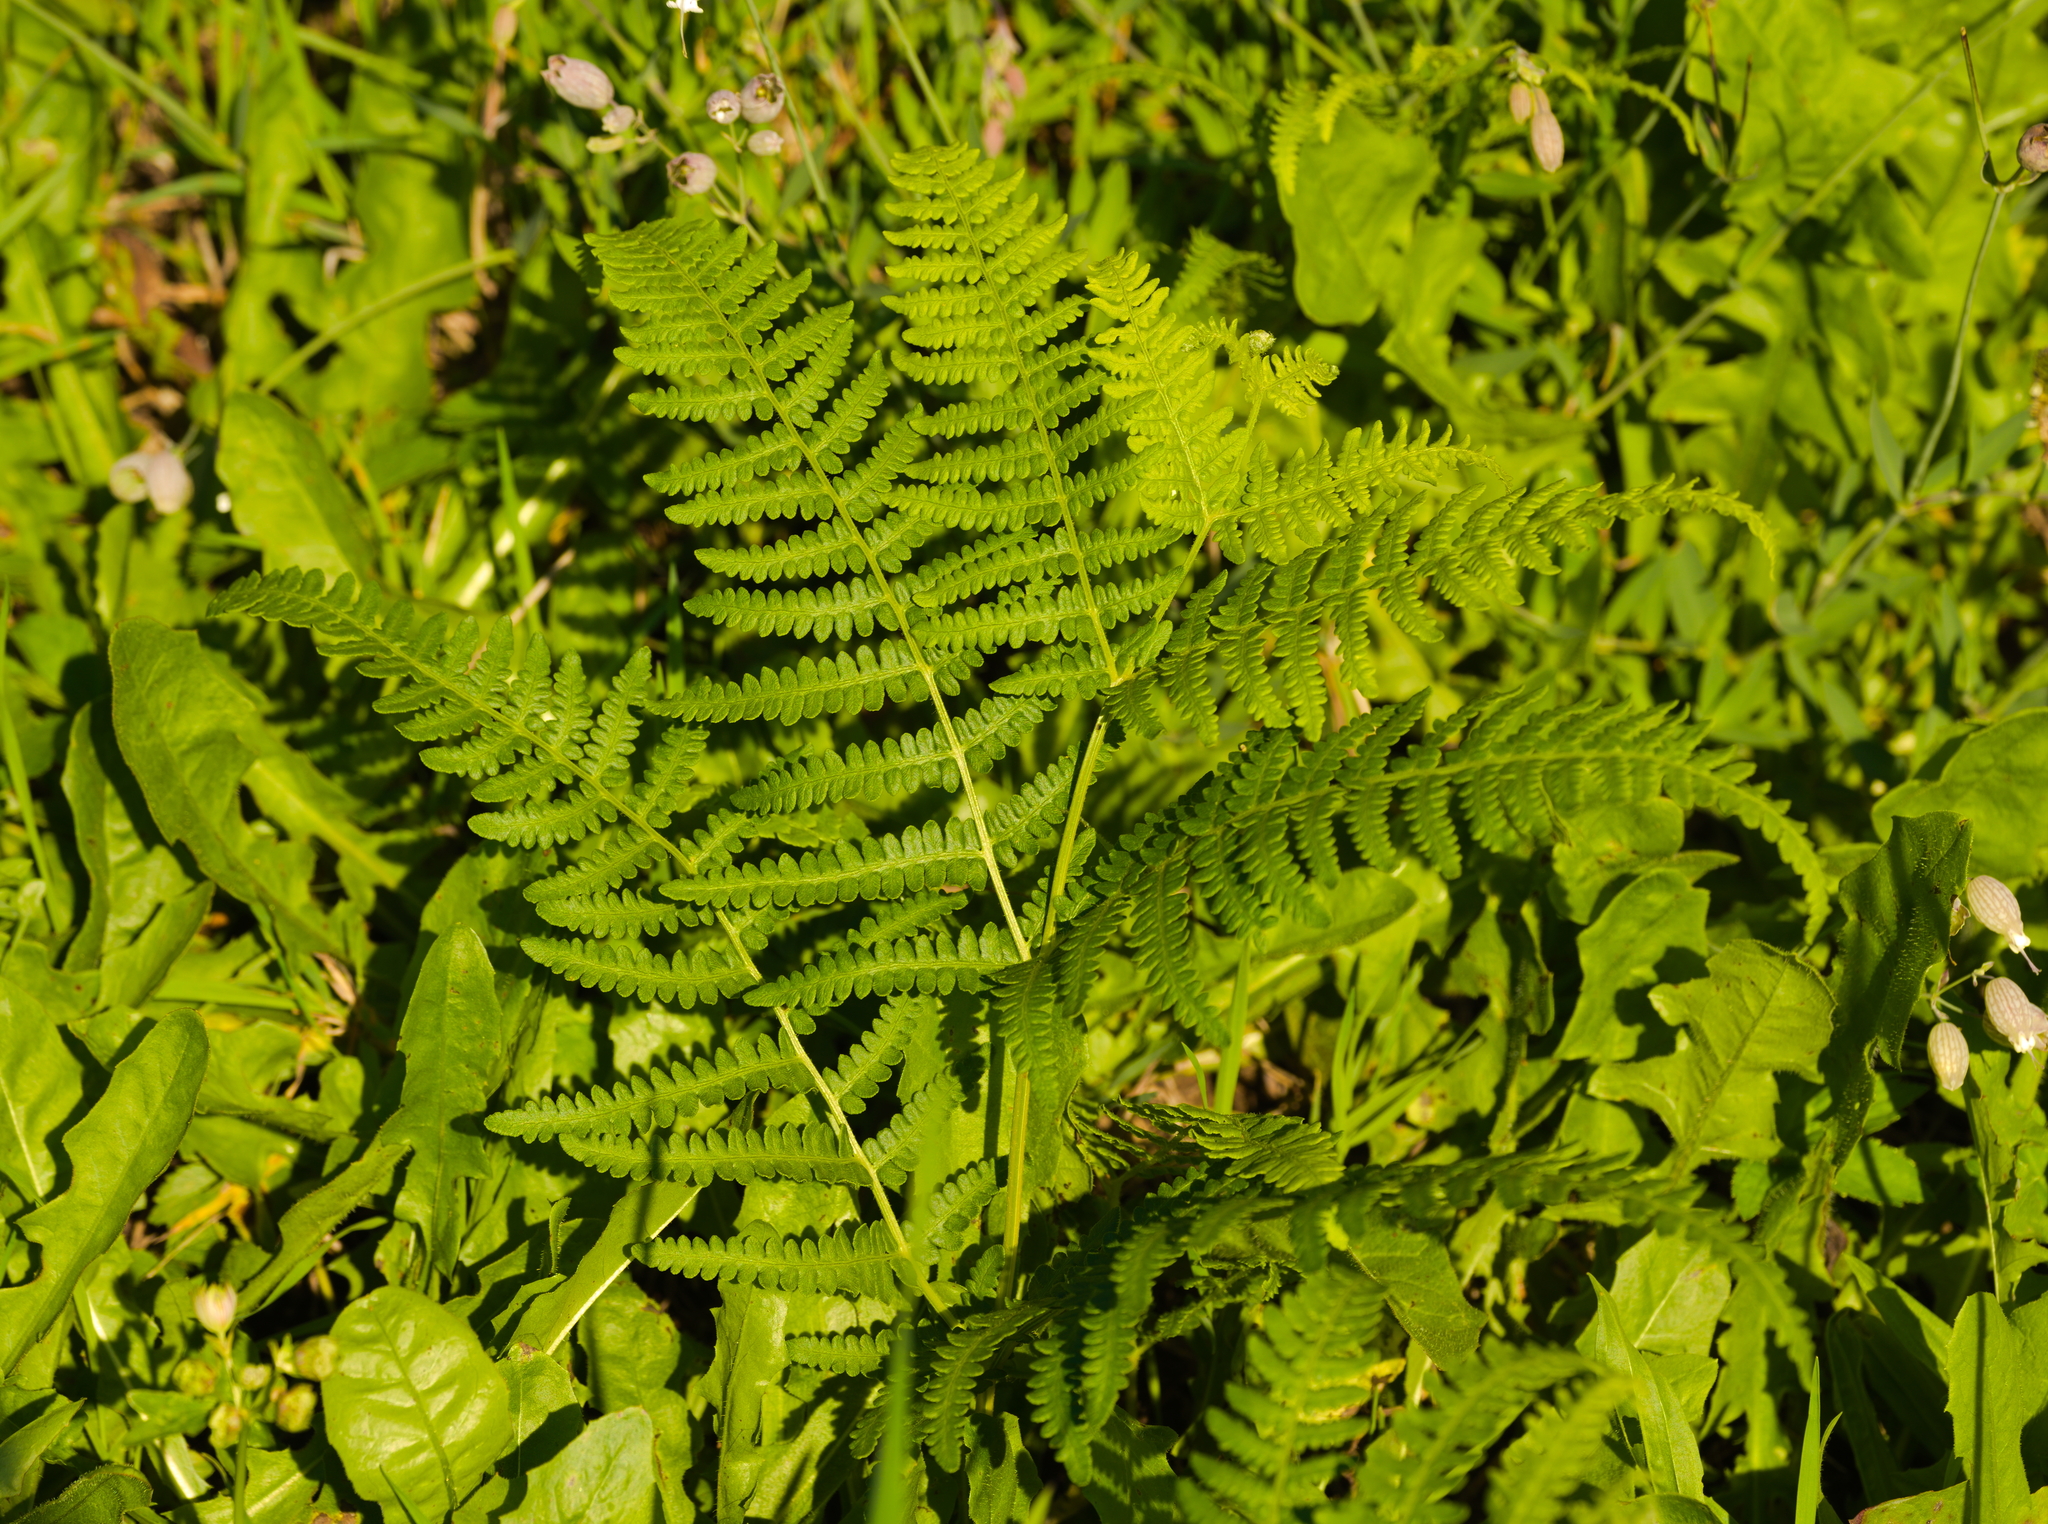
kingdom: Plantae
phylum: Tracheophyta
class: Polypodiopsida
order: Polypodiales
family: Dennstaedtiaceae
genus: Pteridium
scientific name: Pteridium aquilinum
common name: Bracken
